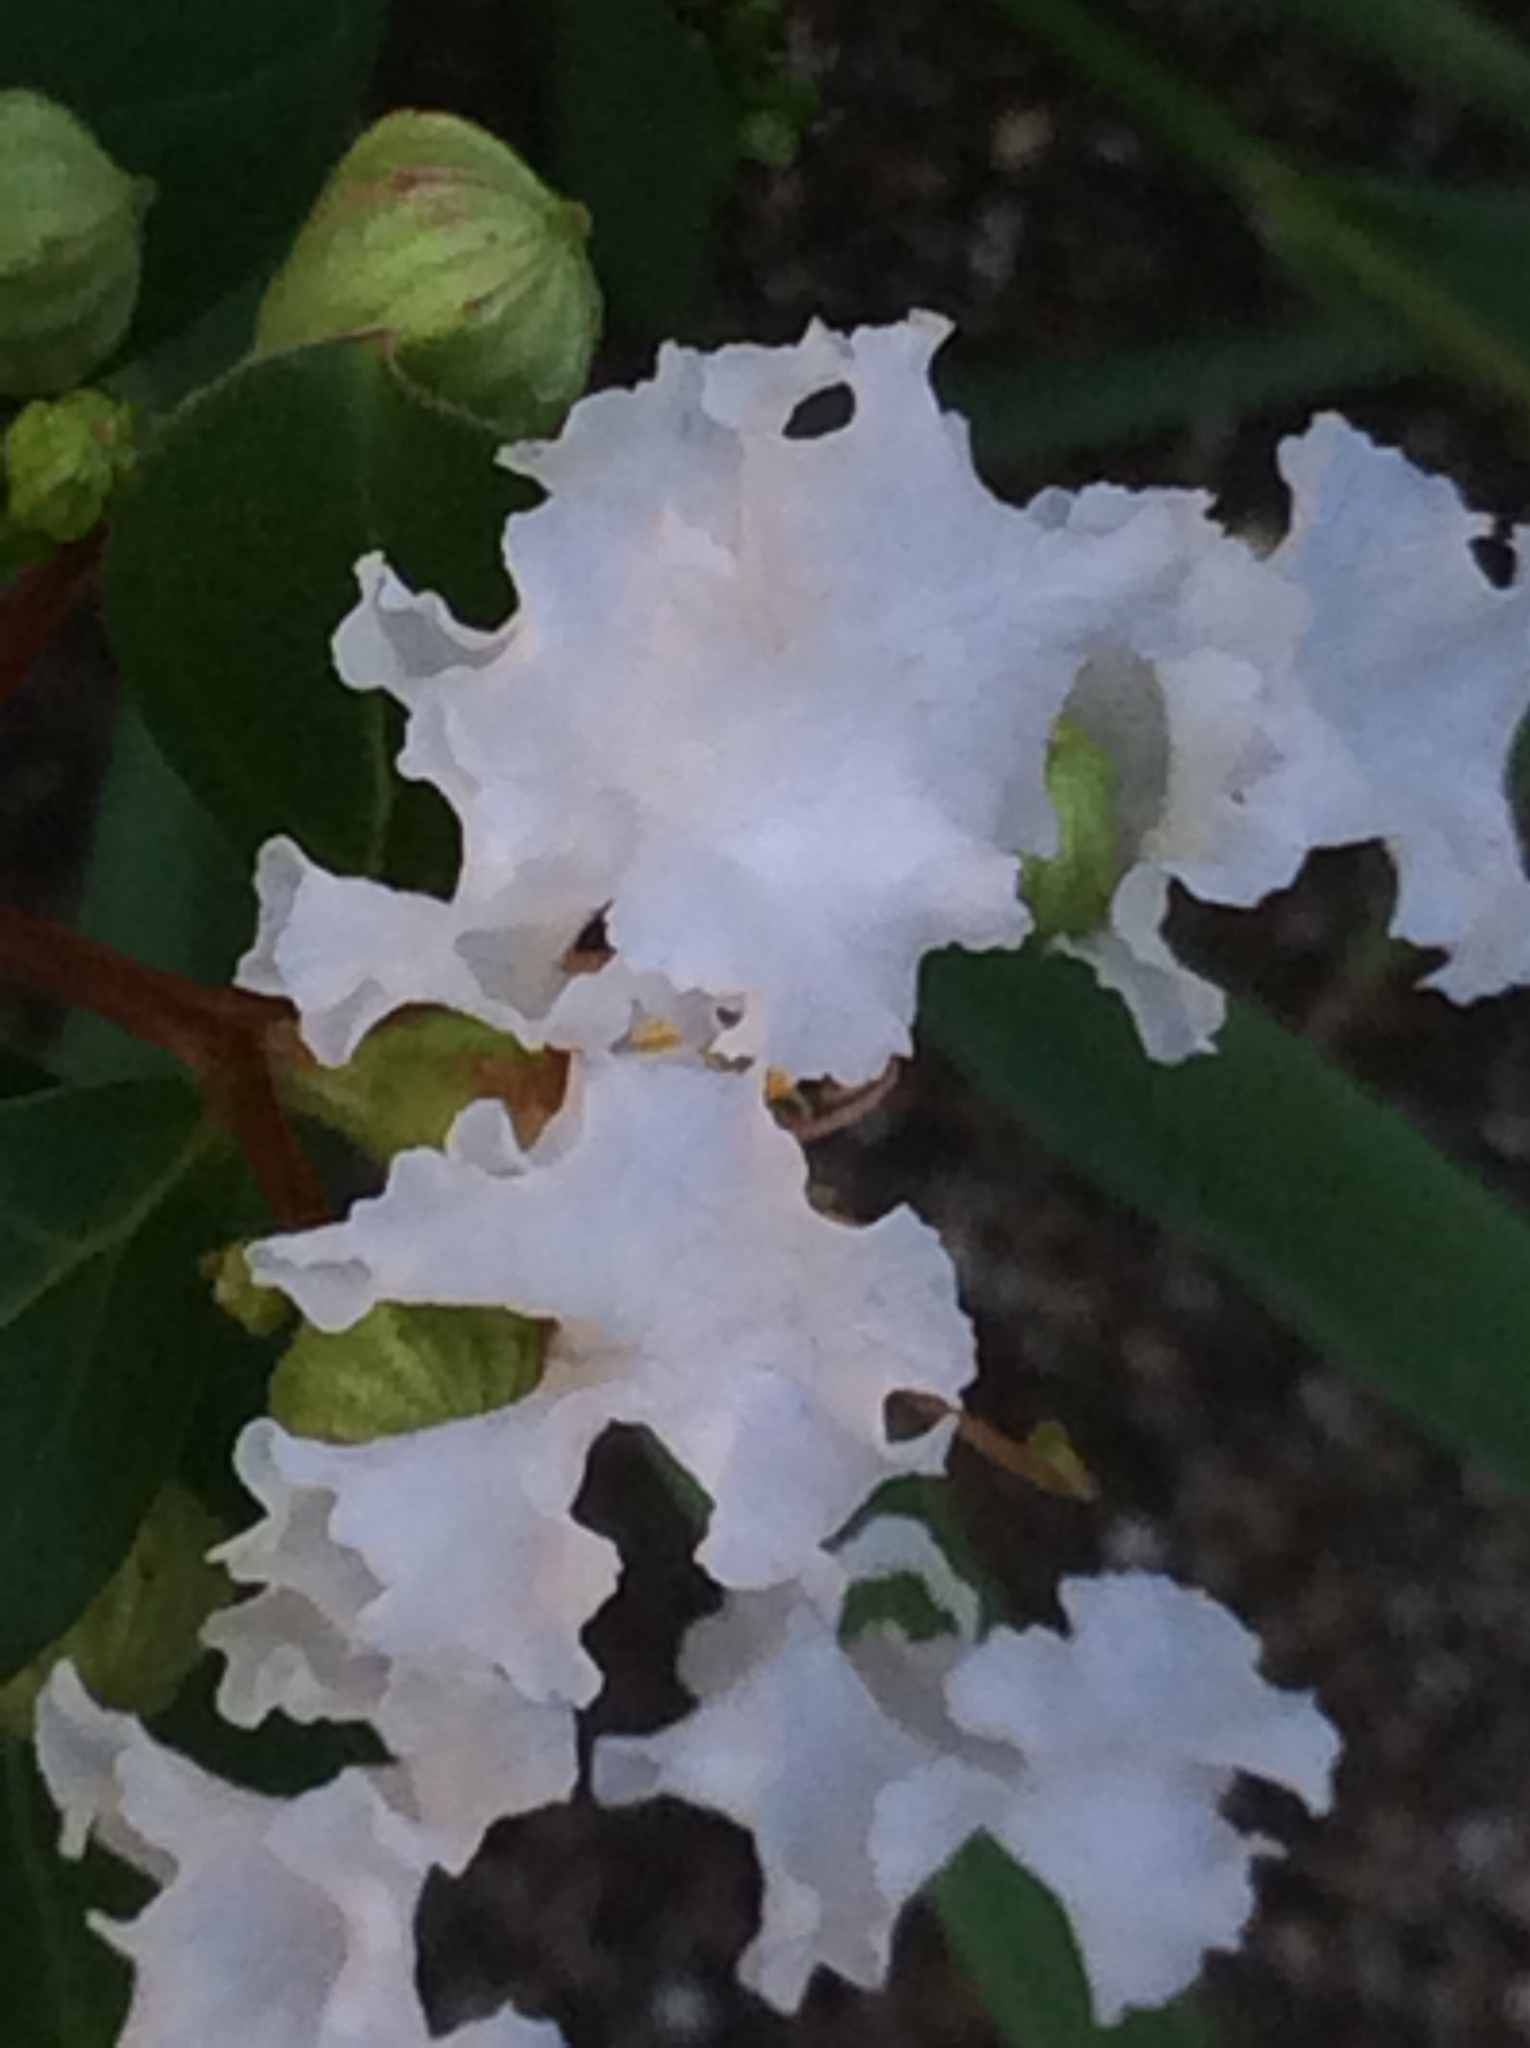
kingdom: Plantae
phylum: Tracheophyta
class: Magnoliopsida
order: Myrtales
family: Lythraceae
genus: Lagerstroemia
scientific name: Lagerstroemia indica
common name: Crape-myrtle
